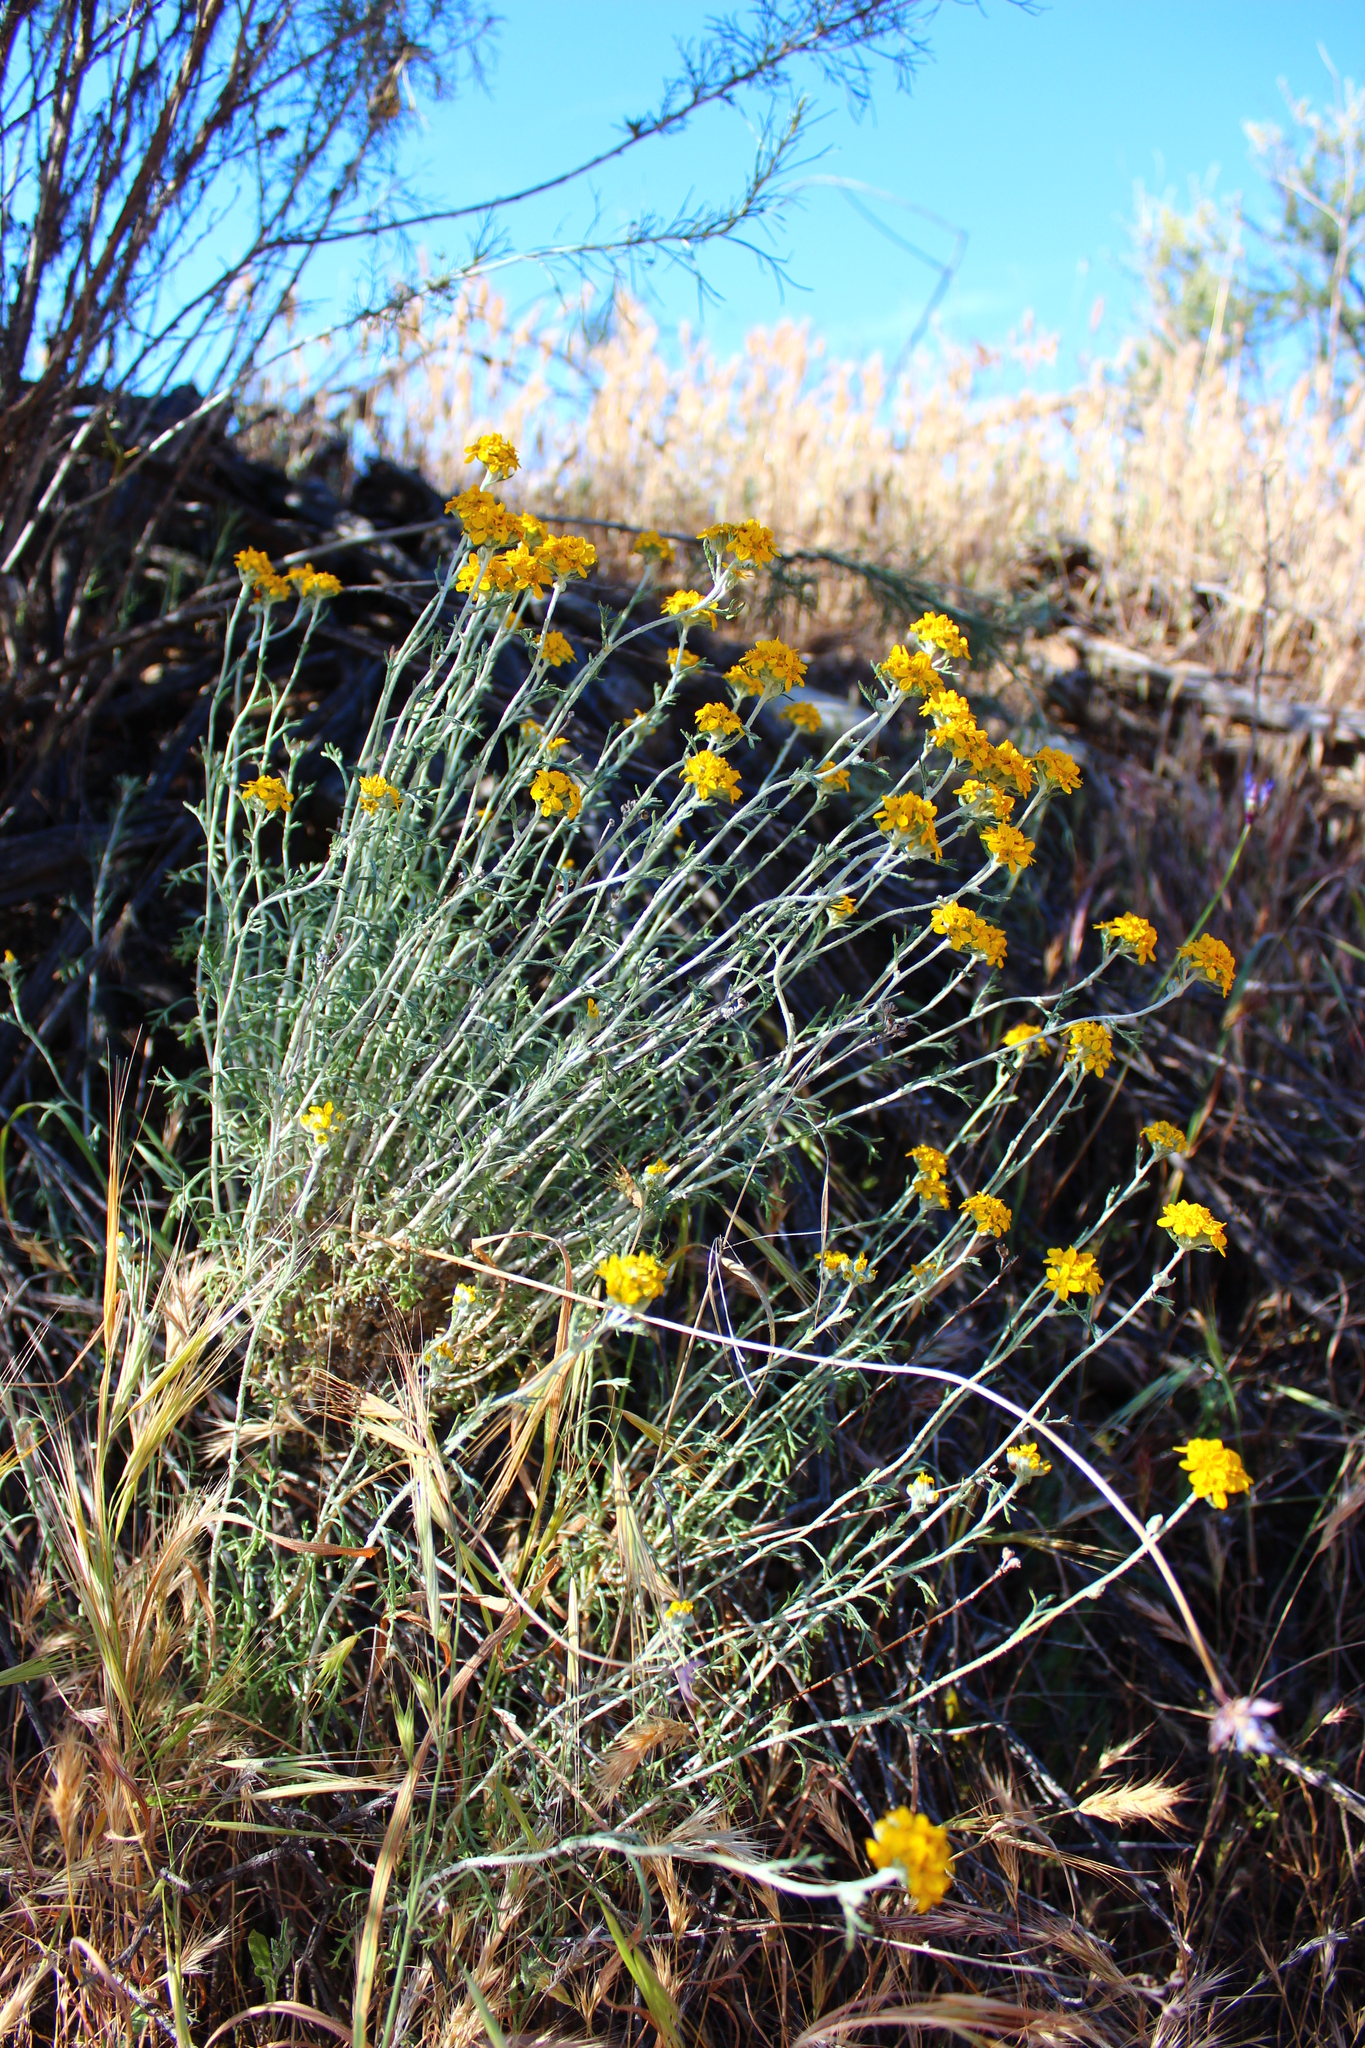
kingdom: Plantae
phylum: Tracheophyta
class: Magnoliopsida
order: Asterales
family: Asteraceae
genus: Eriophyllum
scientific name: Eriophyllum confertiflorum
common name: Golden-yarrow
